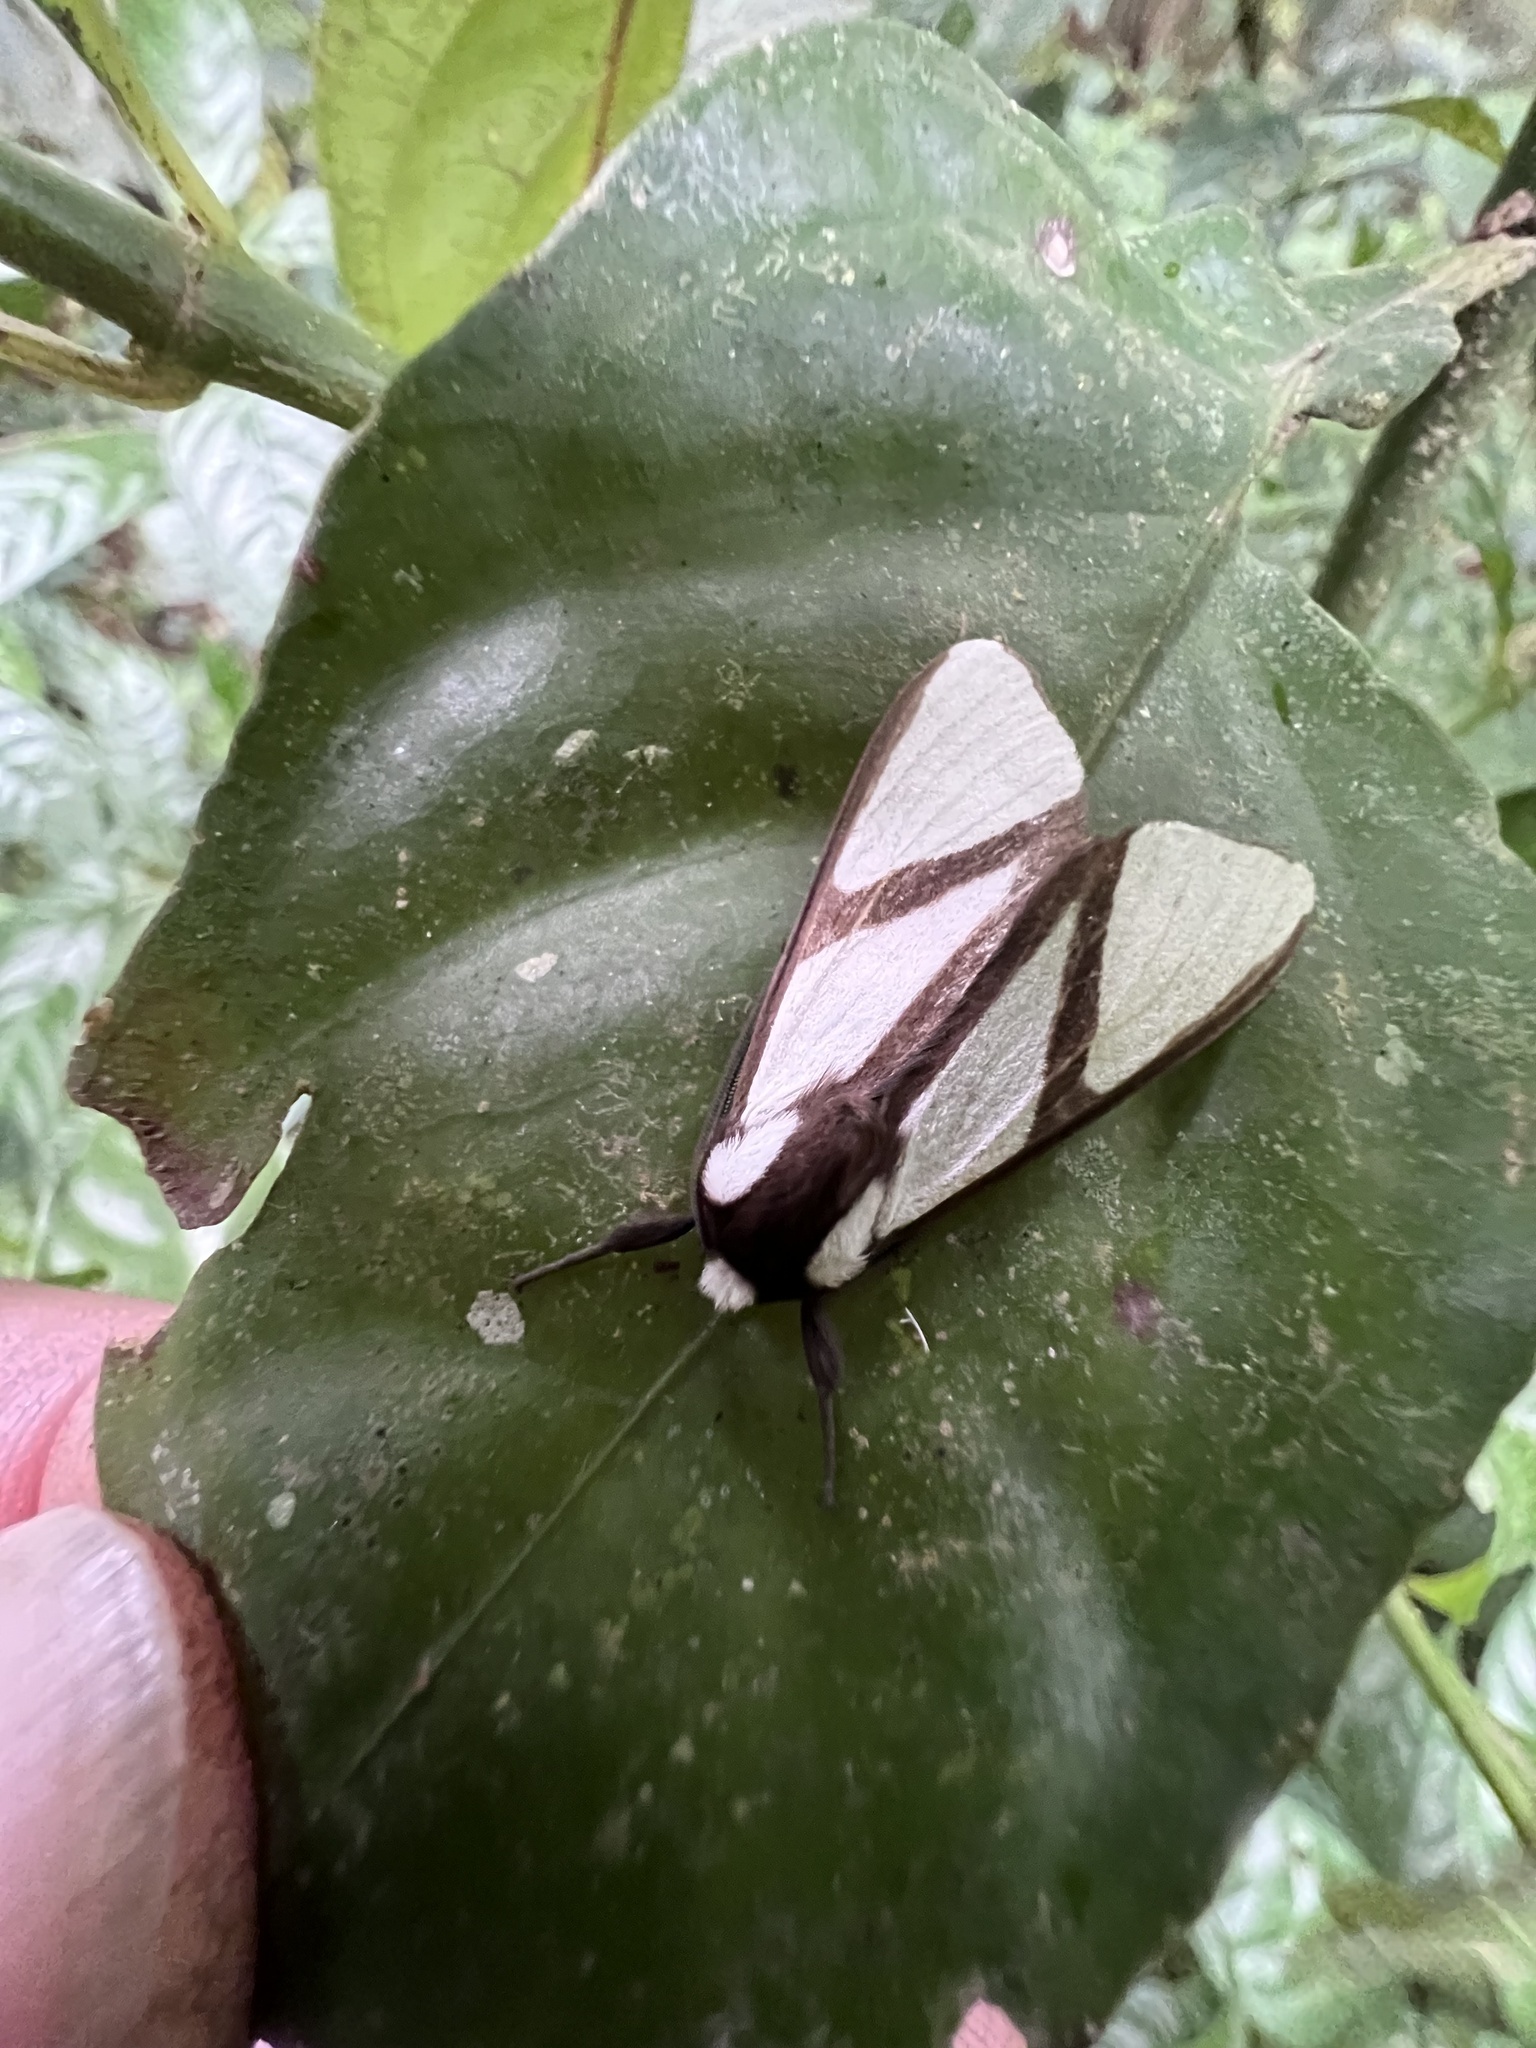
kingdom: Animalia
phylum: Arthropoda
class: Insecta
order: Lepidoptera
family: Erebidae
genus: Turuptiana
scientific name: Turuptiana annesmithae
